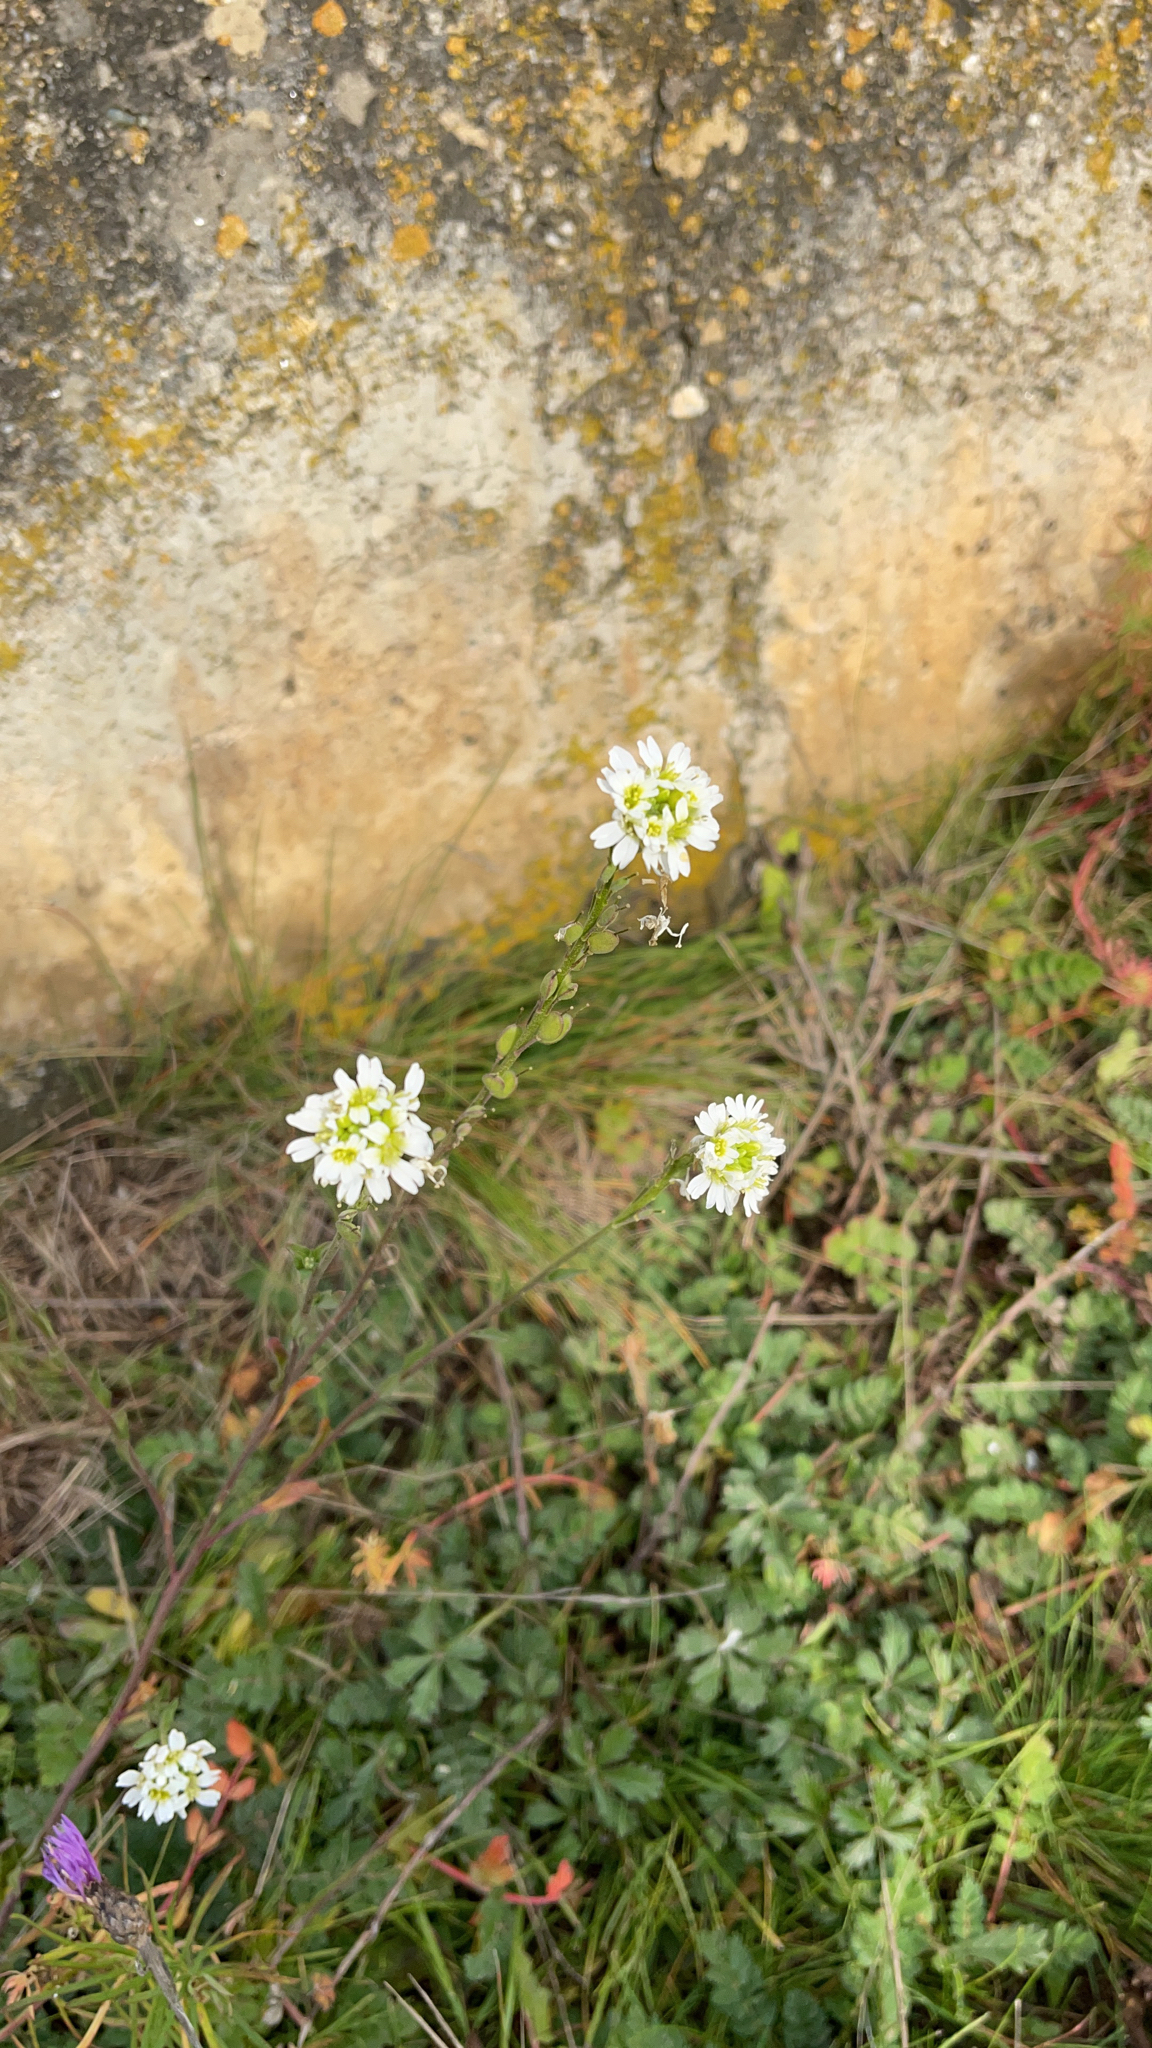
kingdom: Plantae
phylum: Tracheophyta
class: Magnoliopsida
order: Brassicales
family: Brassicaceae
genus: Berteroa
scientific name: Berteroa incana
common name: Hoary alison
